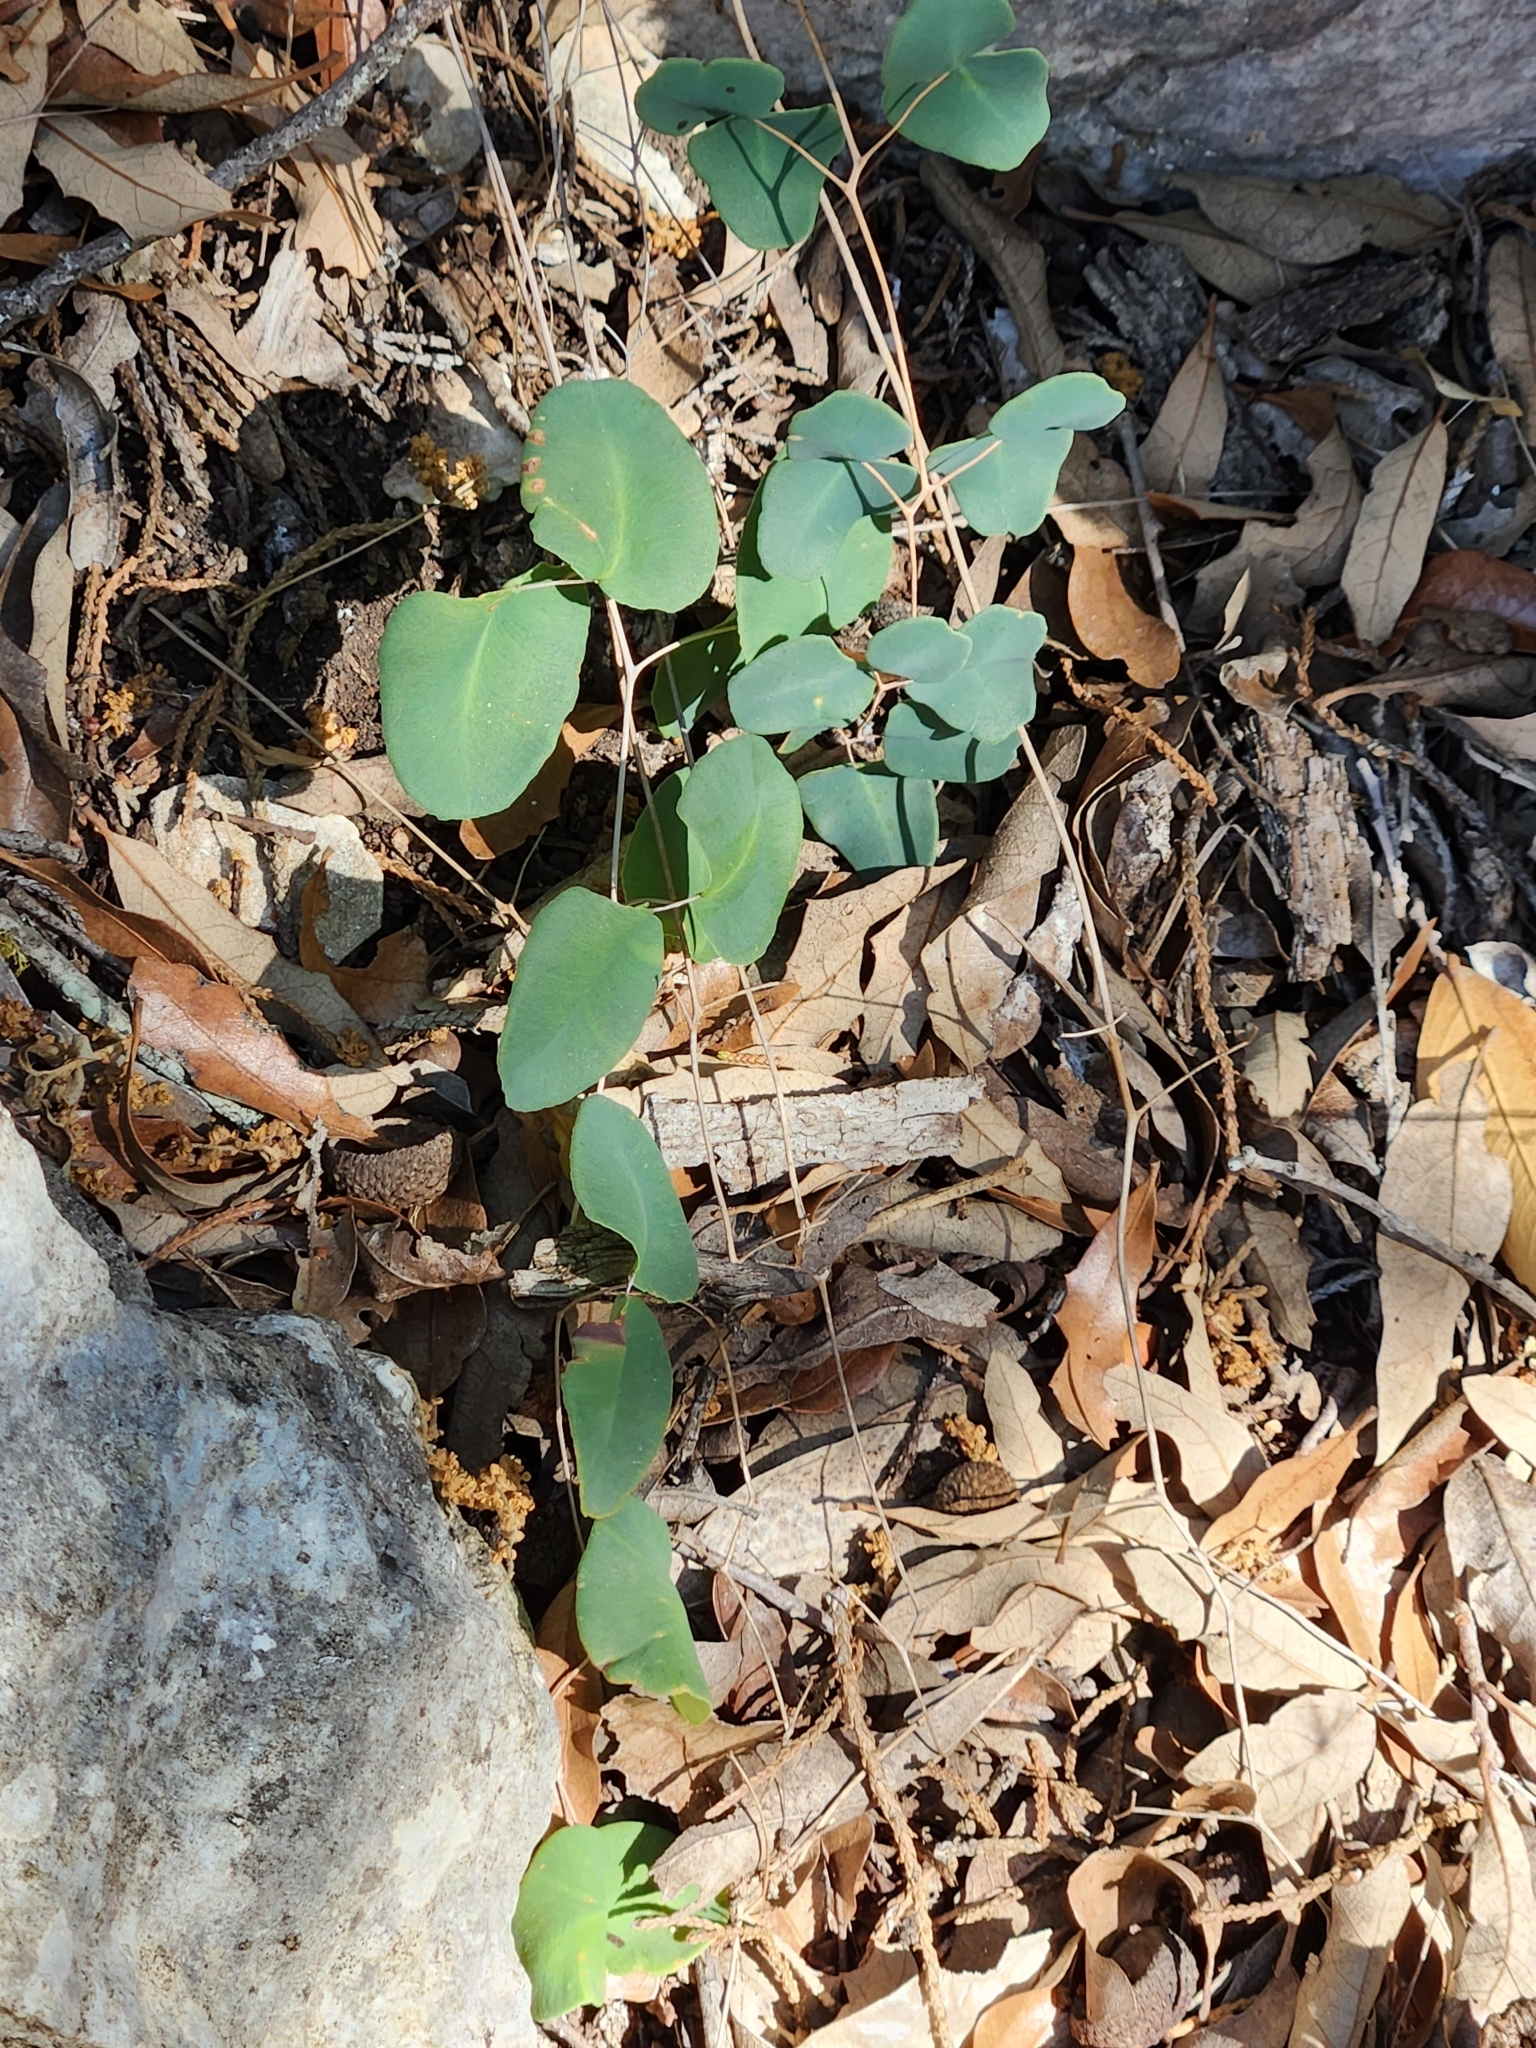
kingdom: Plantae
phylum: Tracheophyta
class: Polypodiopsida
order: Polypodiales
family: Pteridaceae
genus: Pellaea
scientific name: Pellaea ovata
